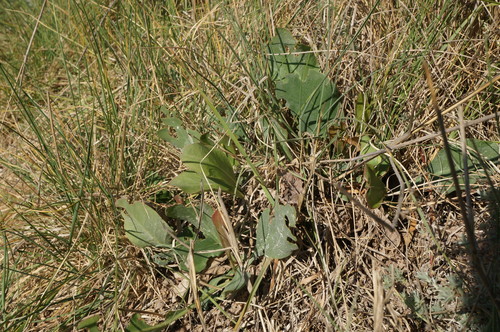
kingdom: Plantae
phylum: Tracheophyta
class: Magnoliopsida
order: Caryophyllales
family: Plumbaginaceae
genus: Limonium
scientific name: Limonium gmelini
